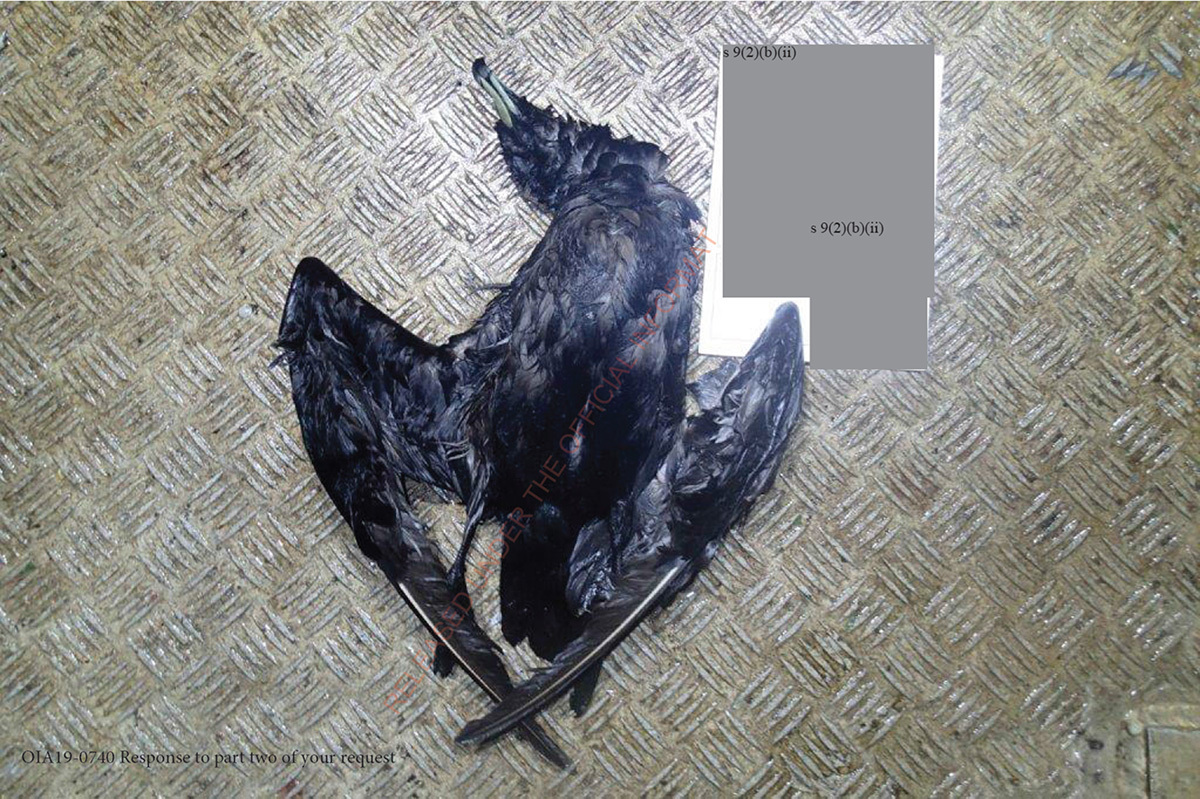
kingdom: Animalia
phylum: Chordata
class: Aves
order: Procellariiformes
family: Procellariidae
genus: Procellaria
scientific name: Procellaria parkinsoni
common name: Black petrel
